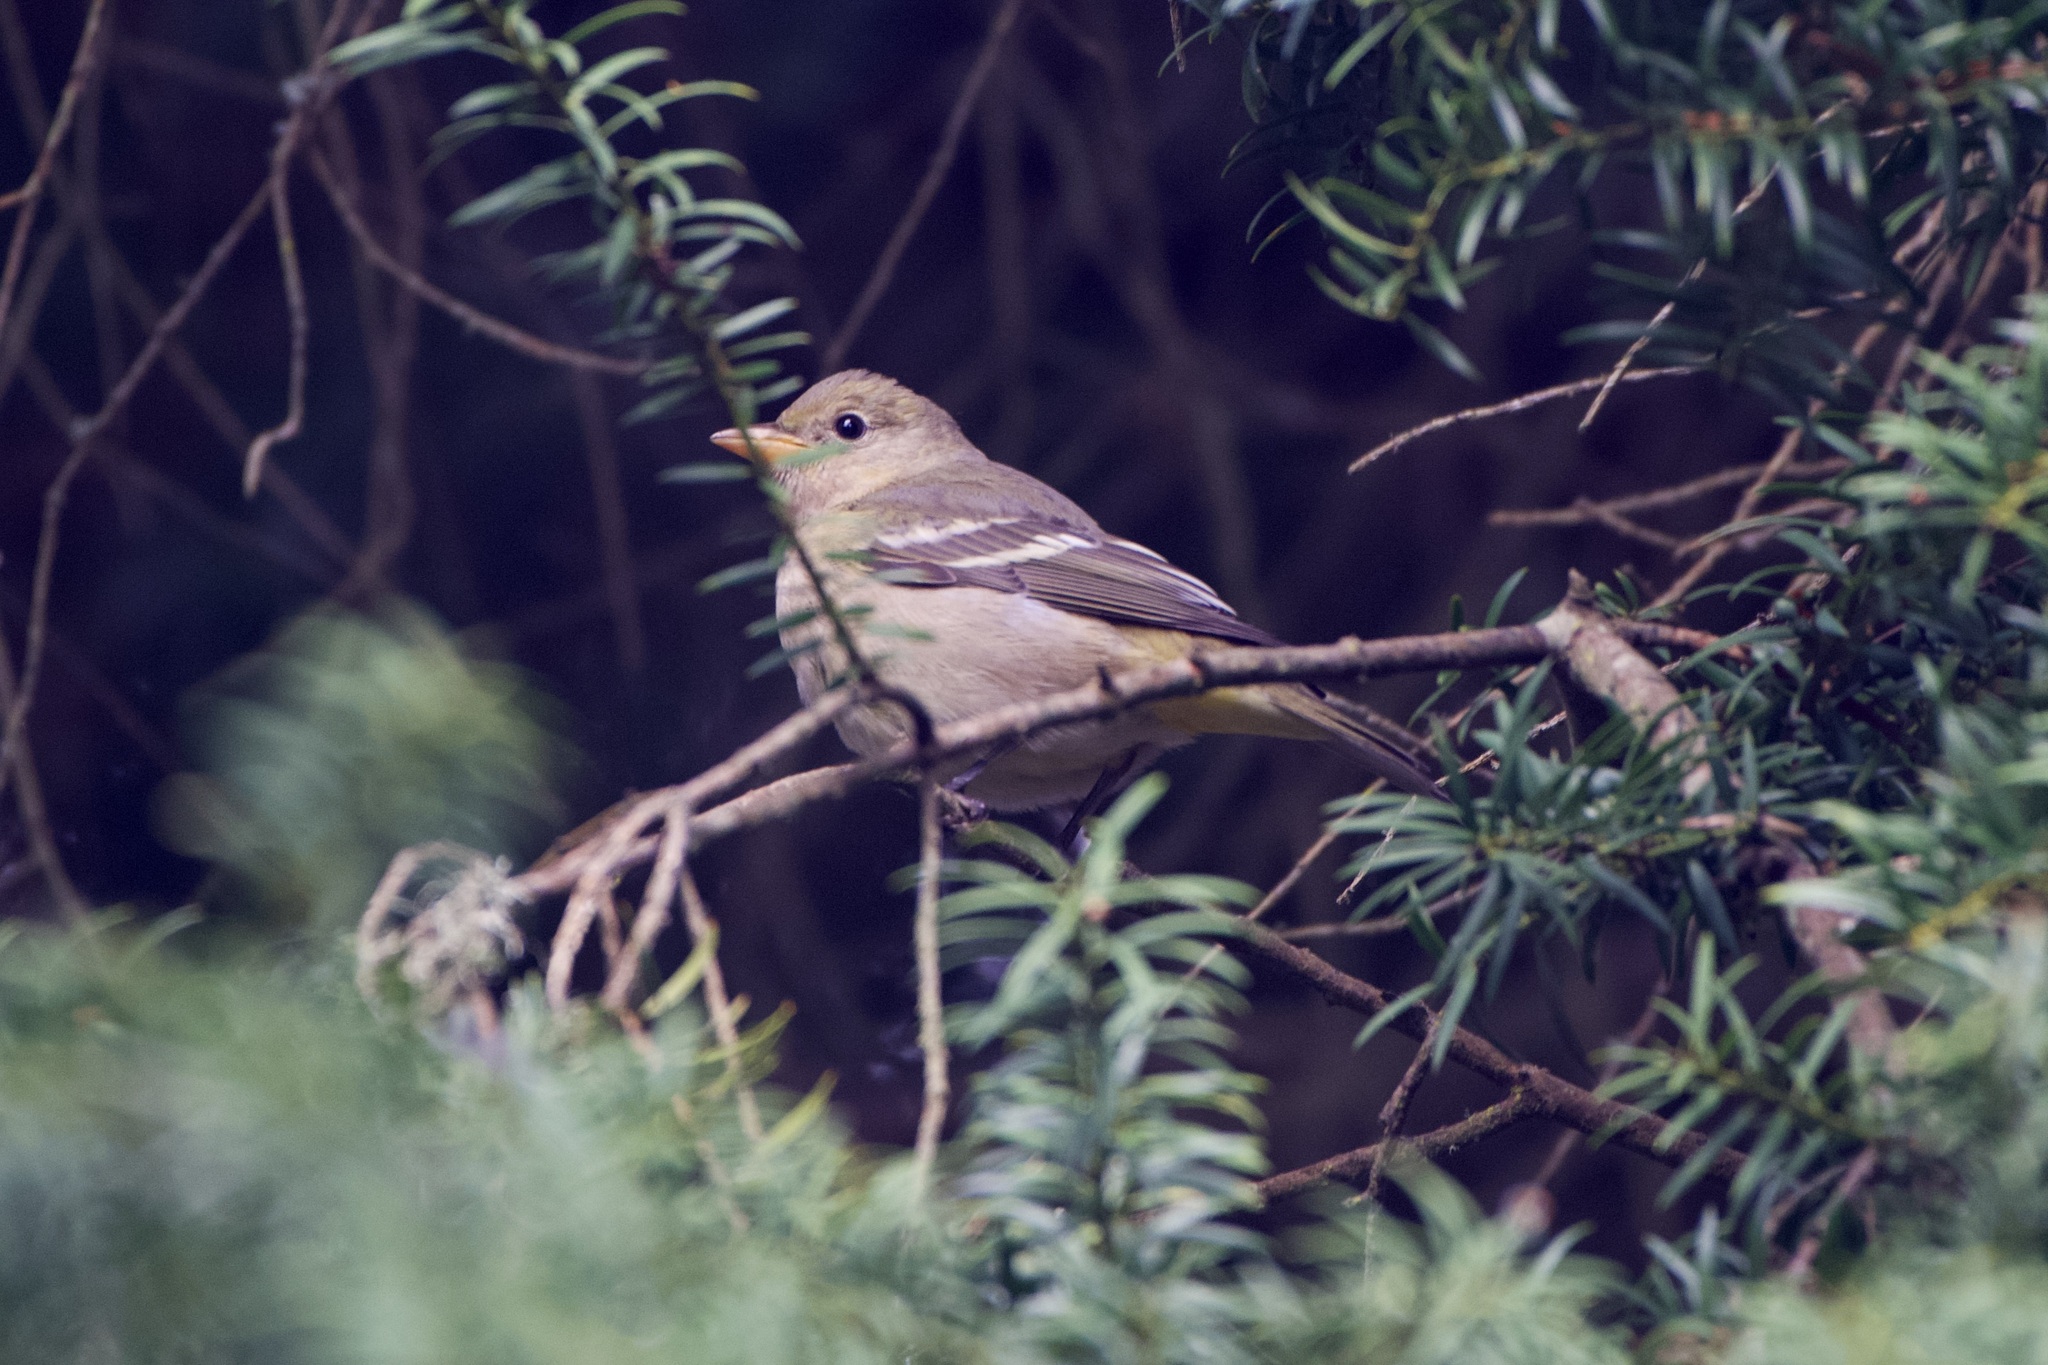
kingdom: Animalia
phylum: Chordata
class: Aves
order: Passeriformes
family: Cardinalidae
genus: Piranga
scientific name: Piranga ludoviciana
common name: Western tanager
